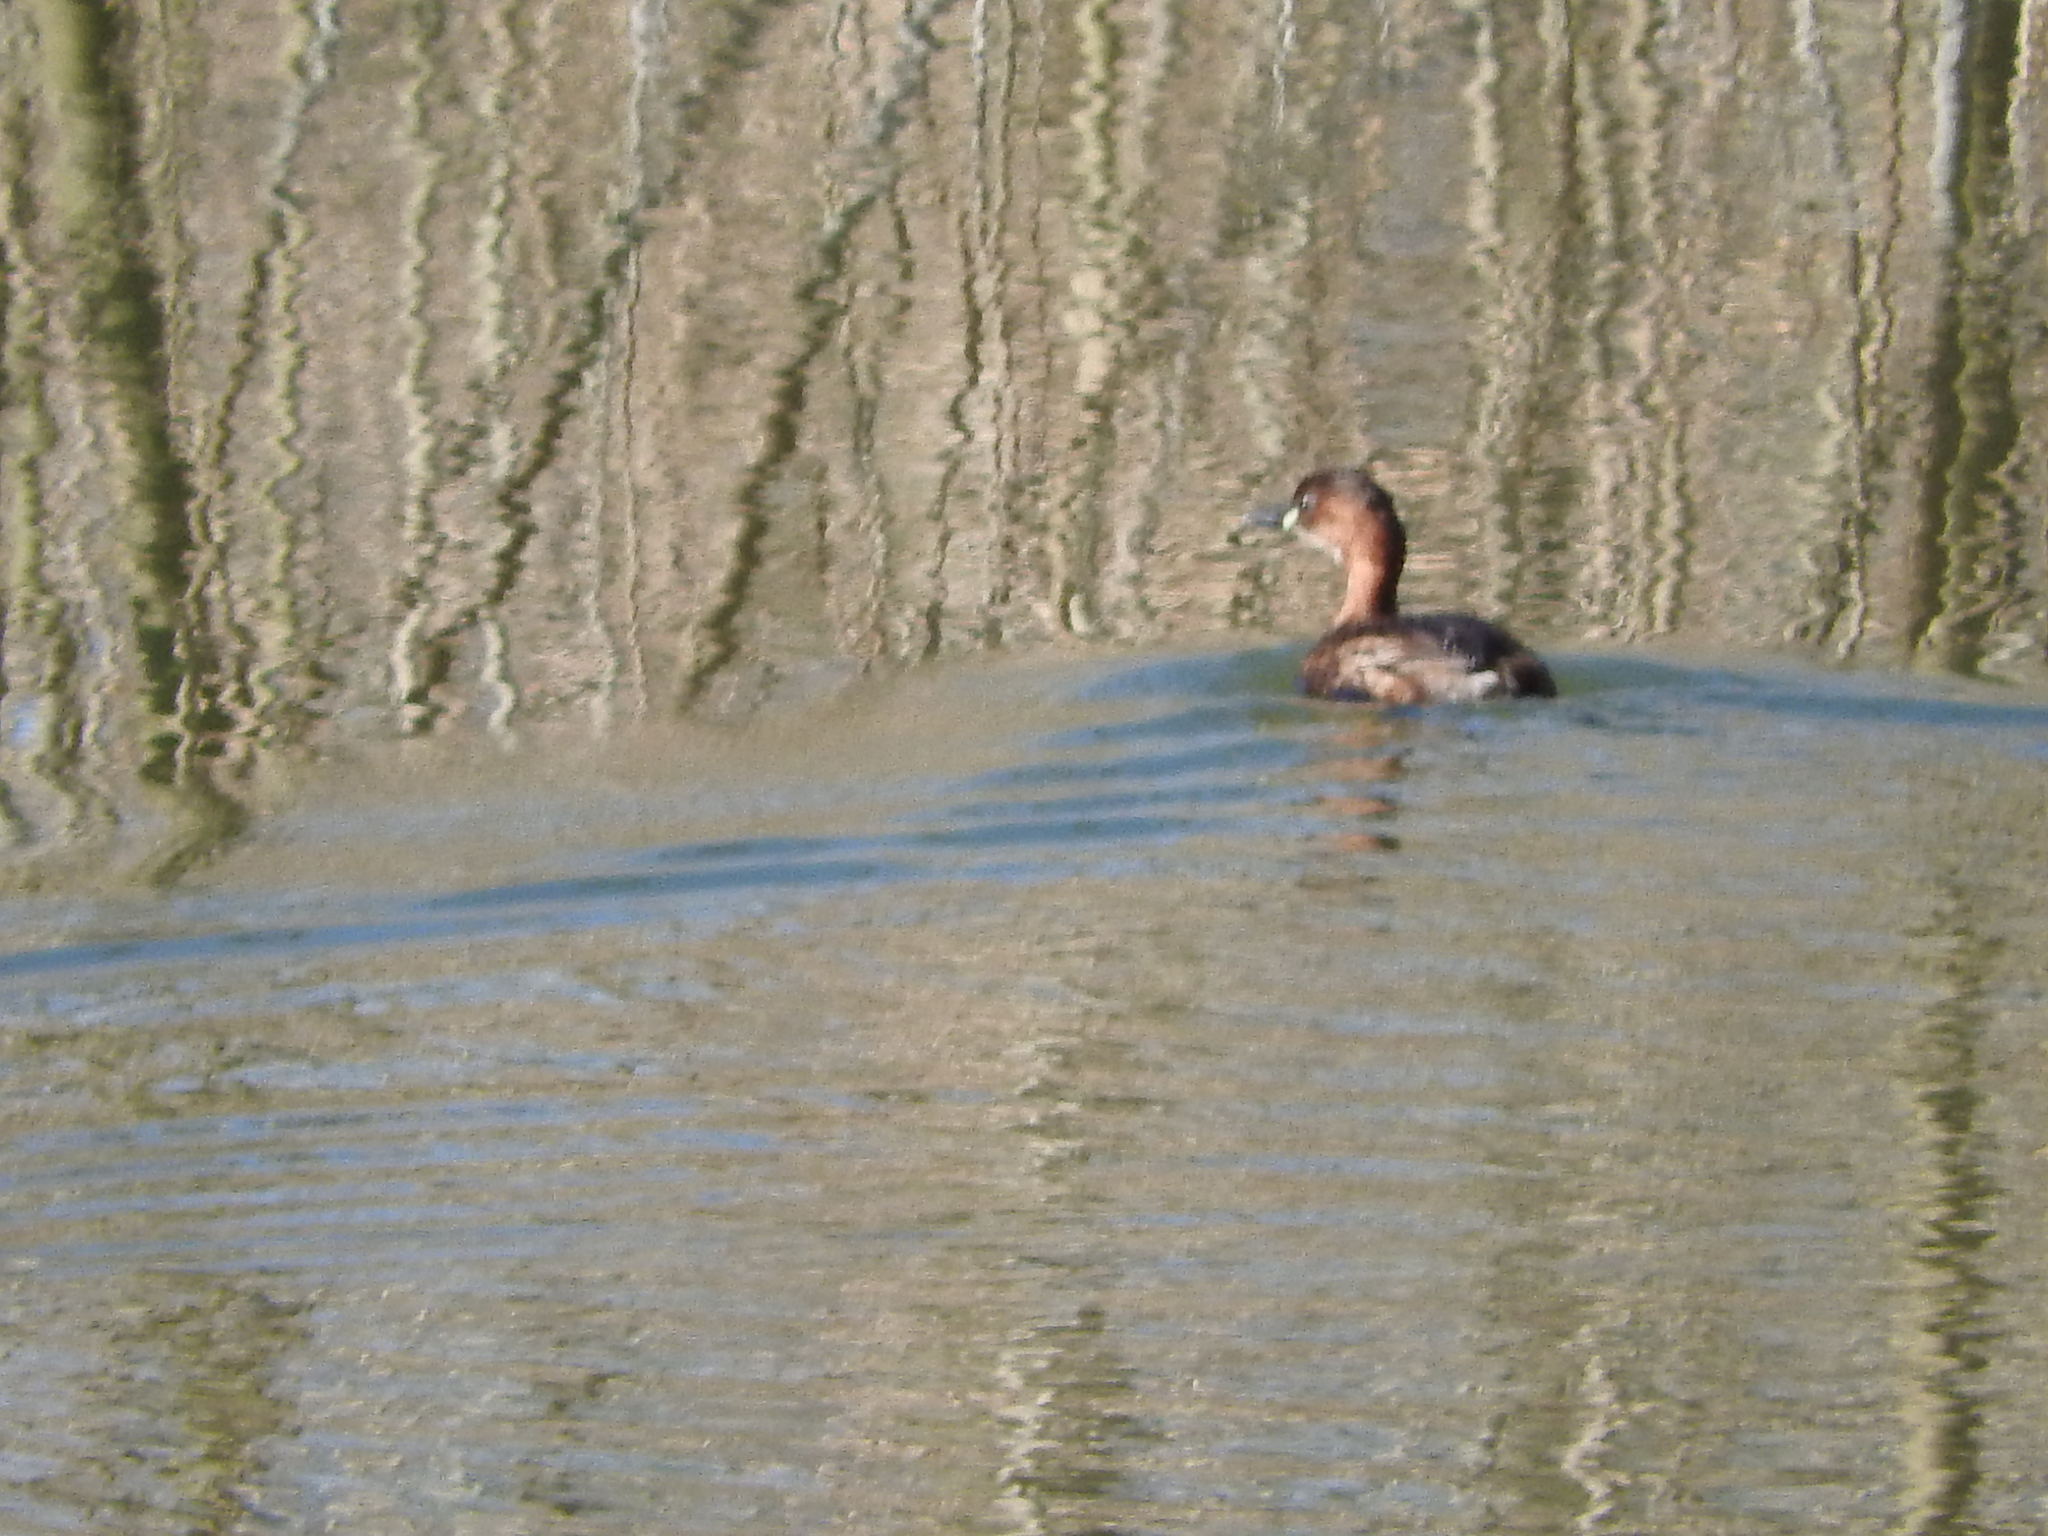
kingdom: Animalia
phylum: Chordata
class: Aves
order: Podicipediformes
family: Podicipedidae
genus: Tachybaptus
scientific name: Tachybaptus ruficollis
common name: Little grebe
